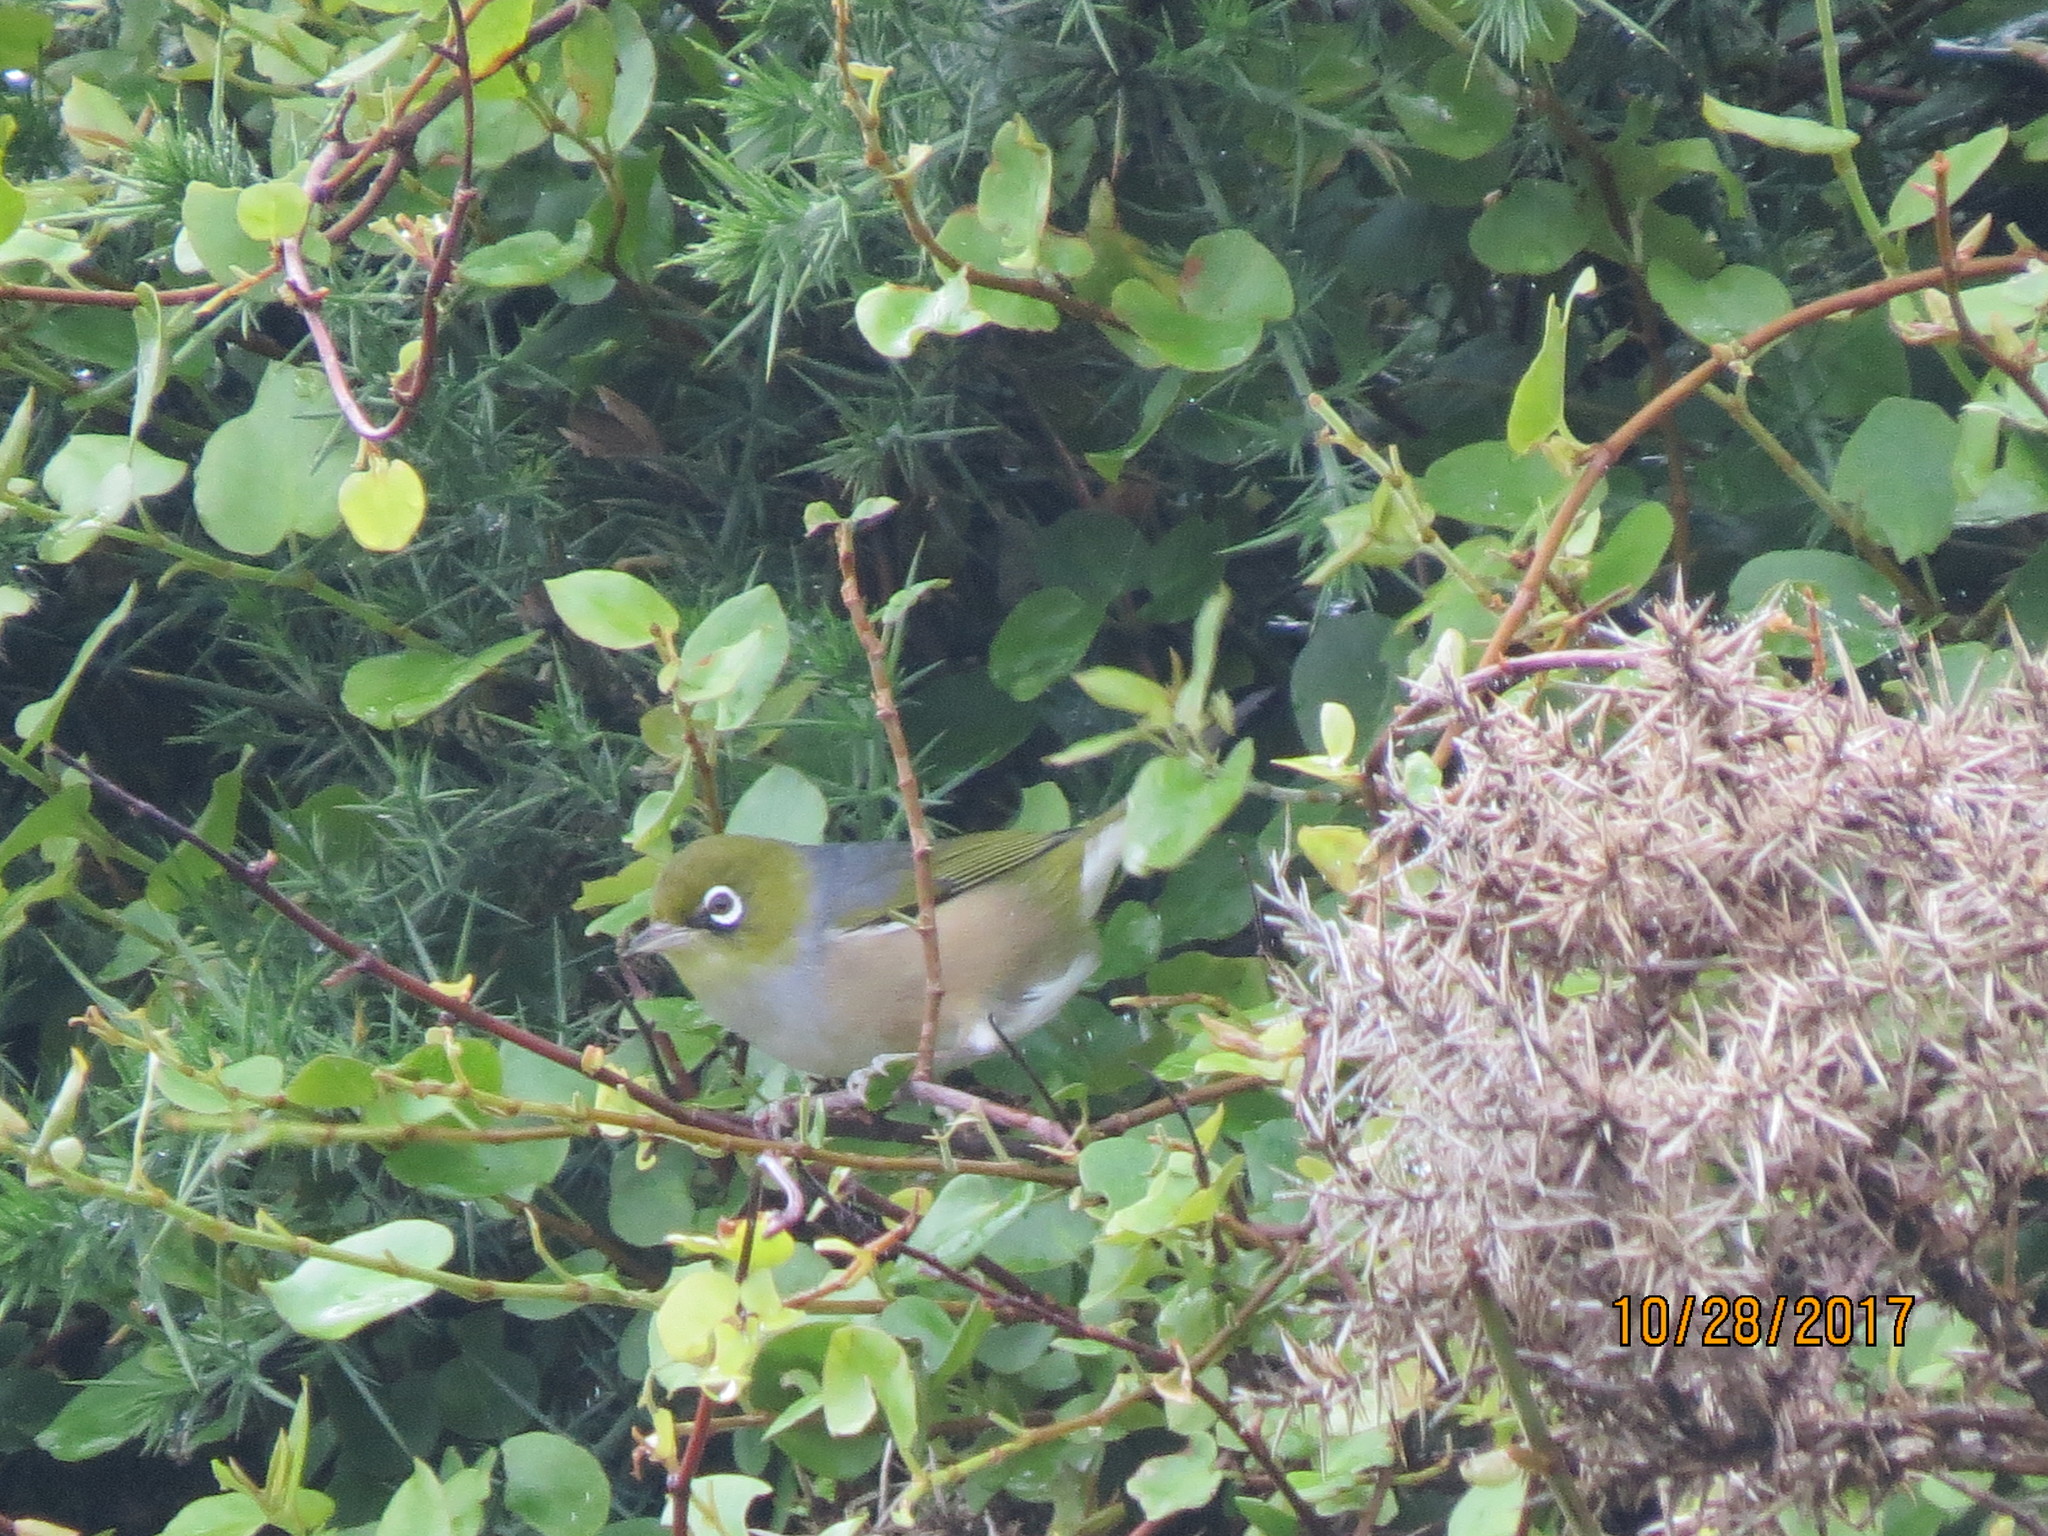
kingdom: Animalia
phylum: Chordata
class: Aves
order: Passeriformes
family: Zosteropidae
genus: Zosterops
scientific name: Zosterops lateralis
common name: Silvereye
